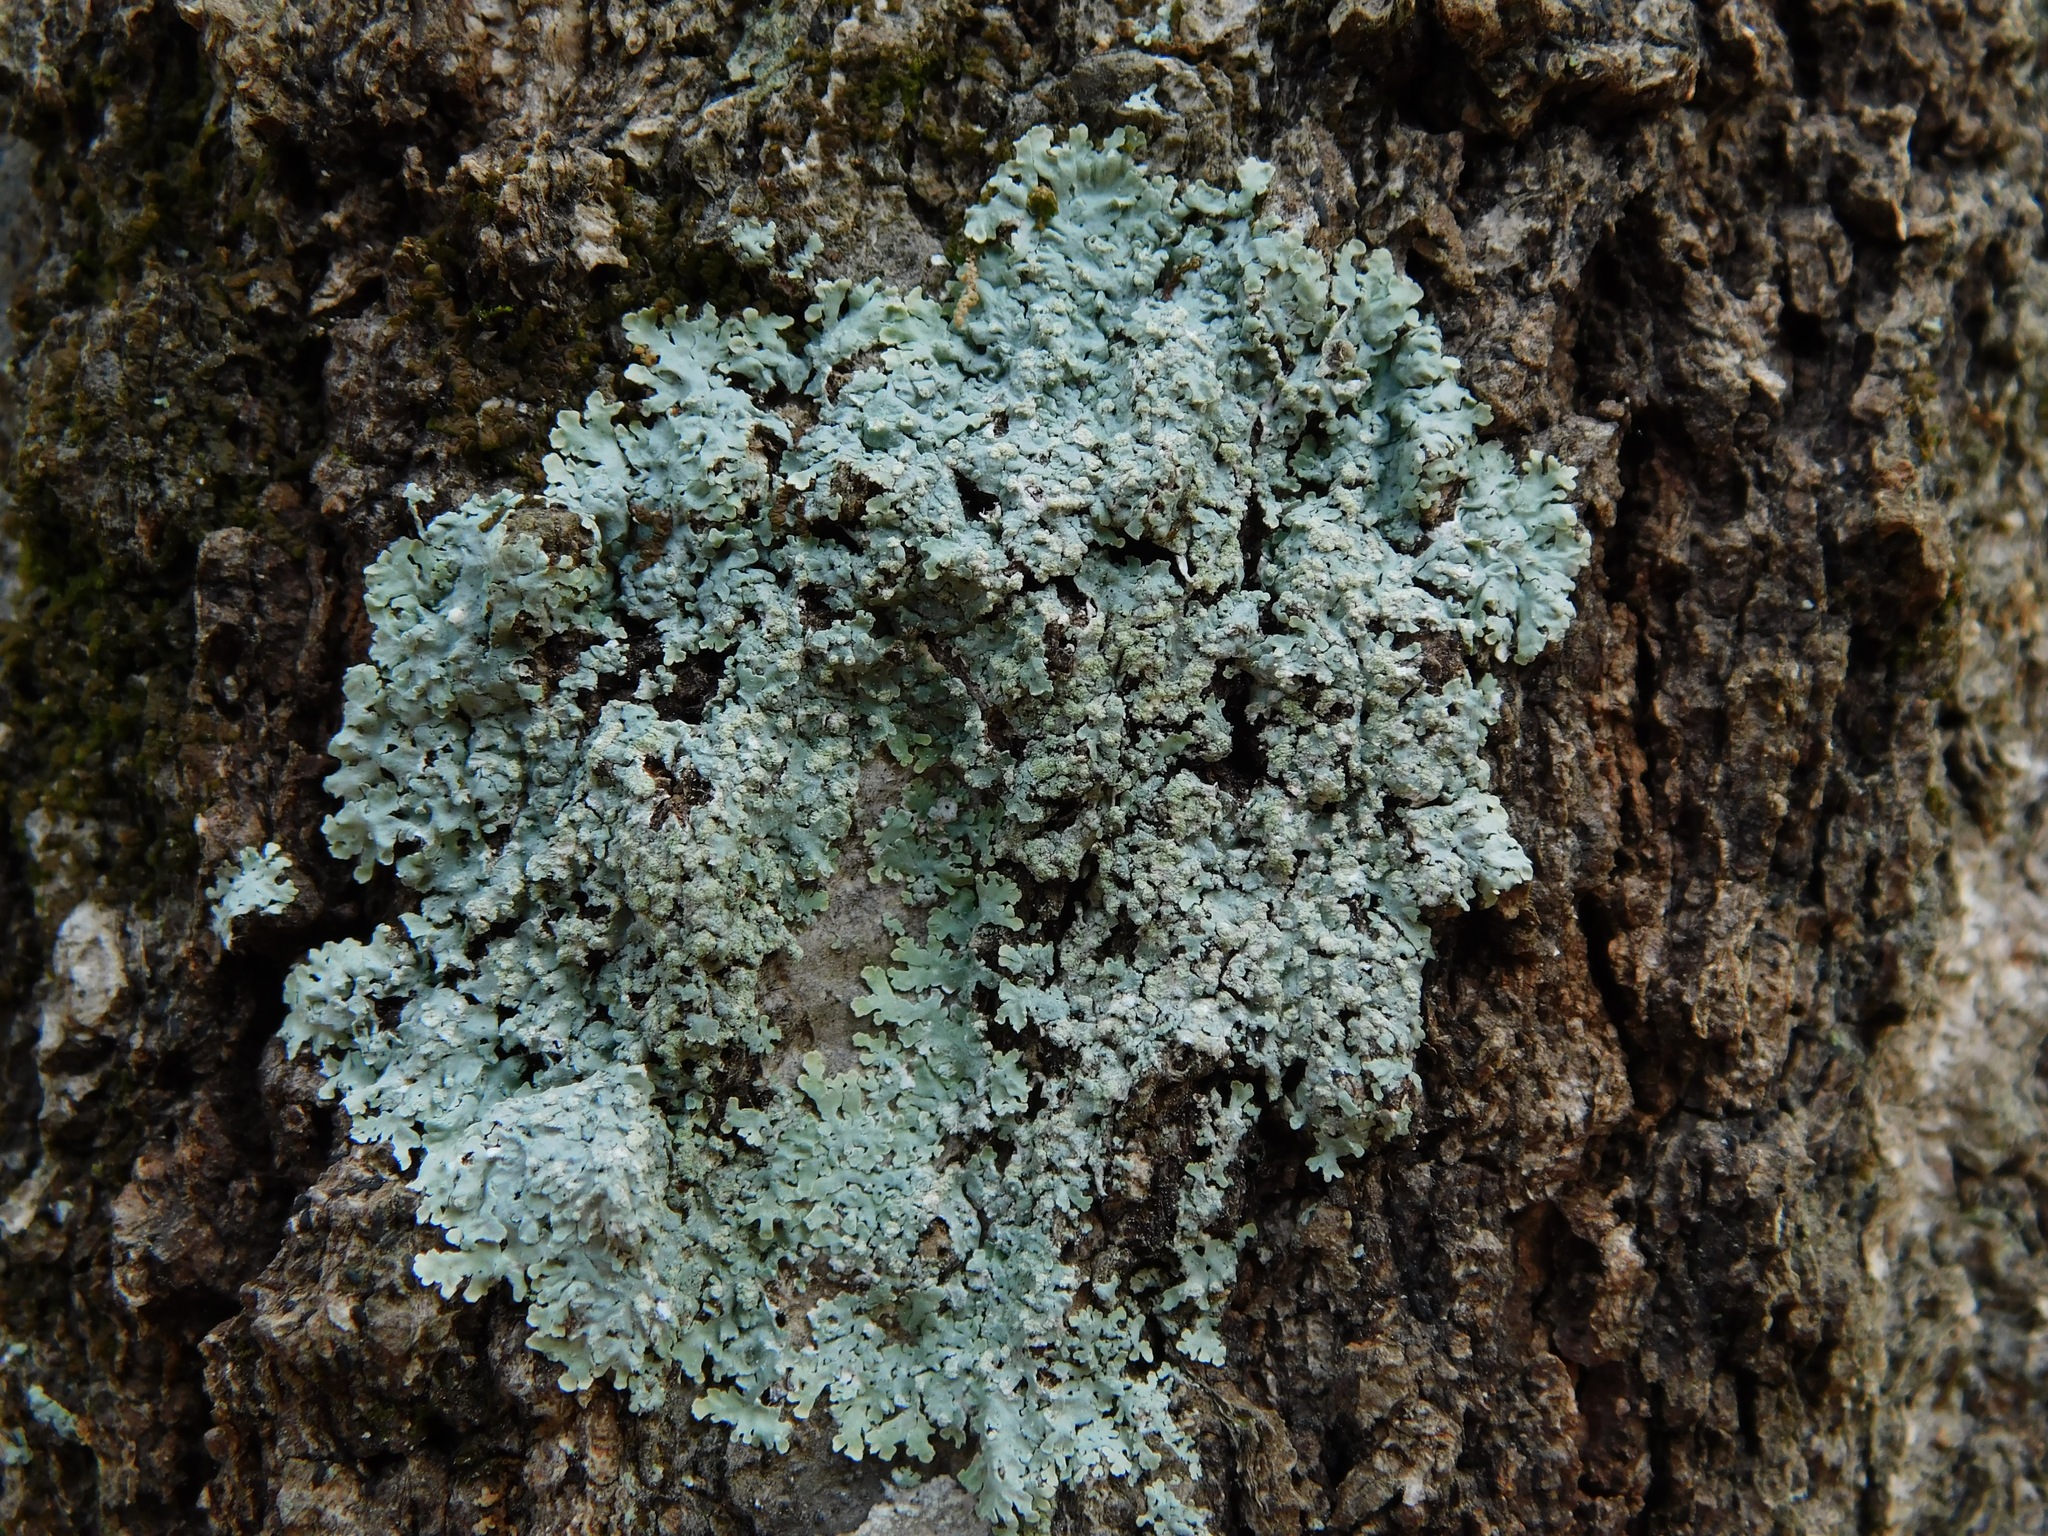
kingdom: Fungi
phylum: Ascomycota
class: Lecanoromycetes
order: Caliciales
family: Physciaceae
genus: Physcia
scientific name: Physcia americana
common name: American rosette lichen
